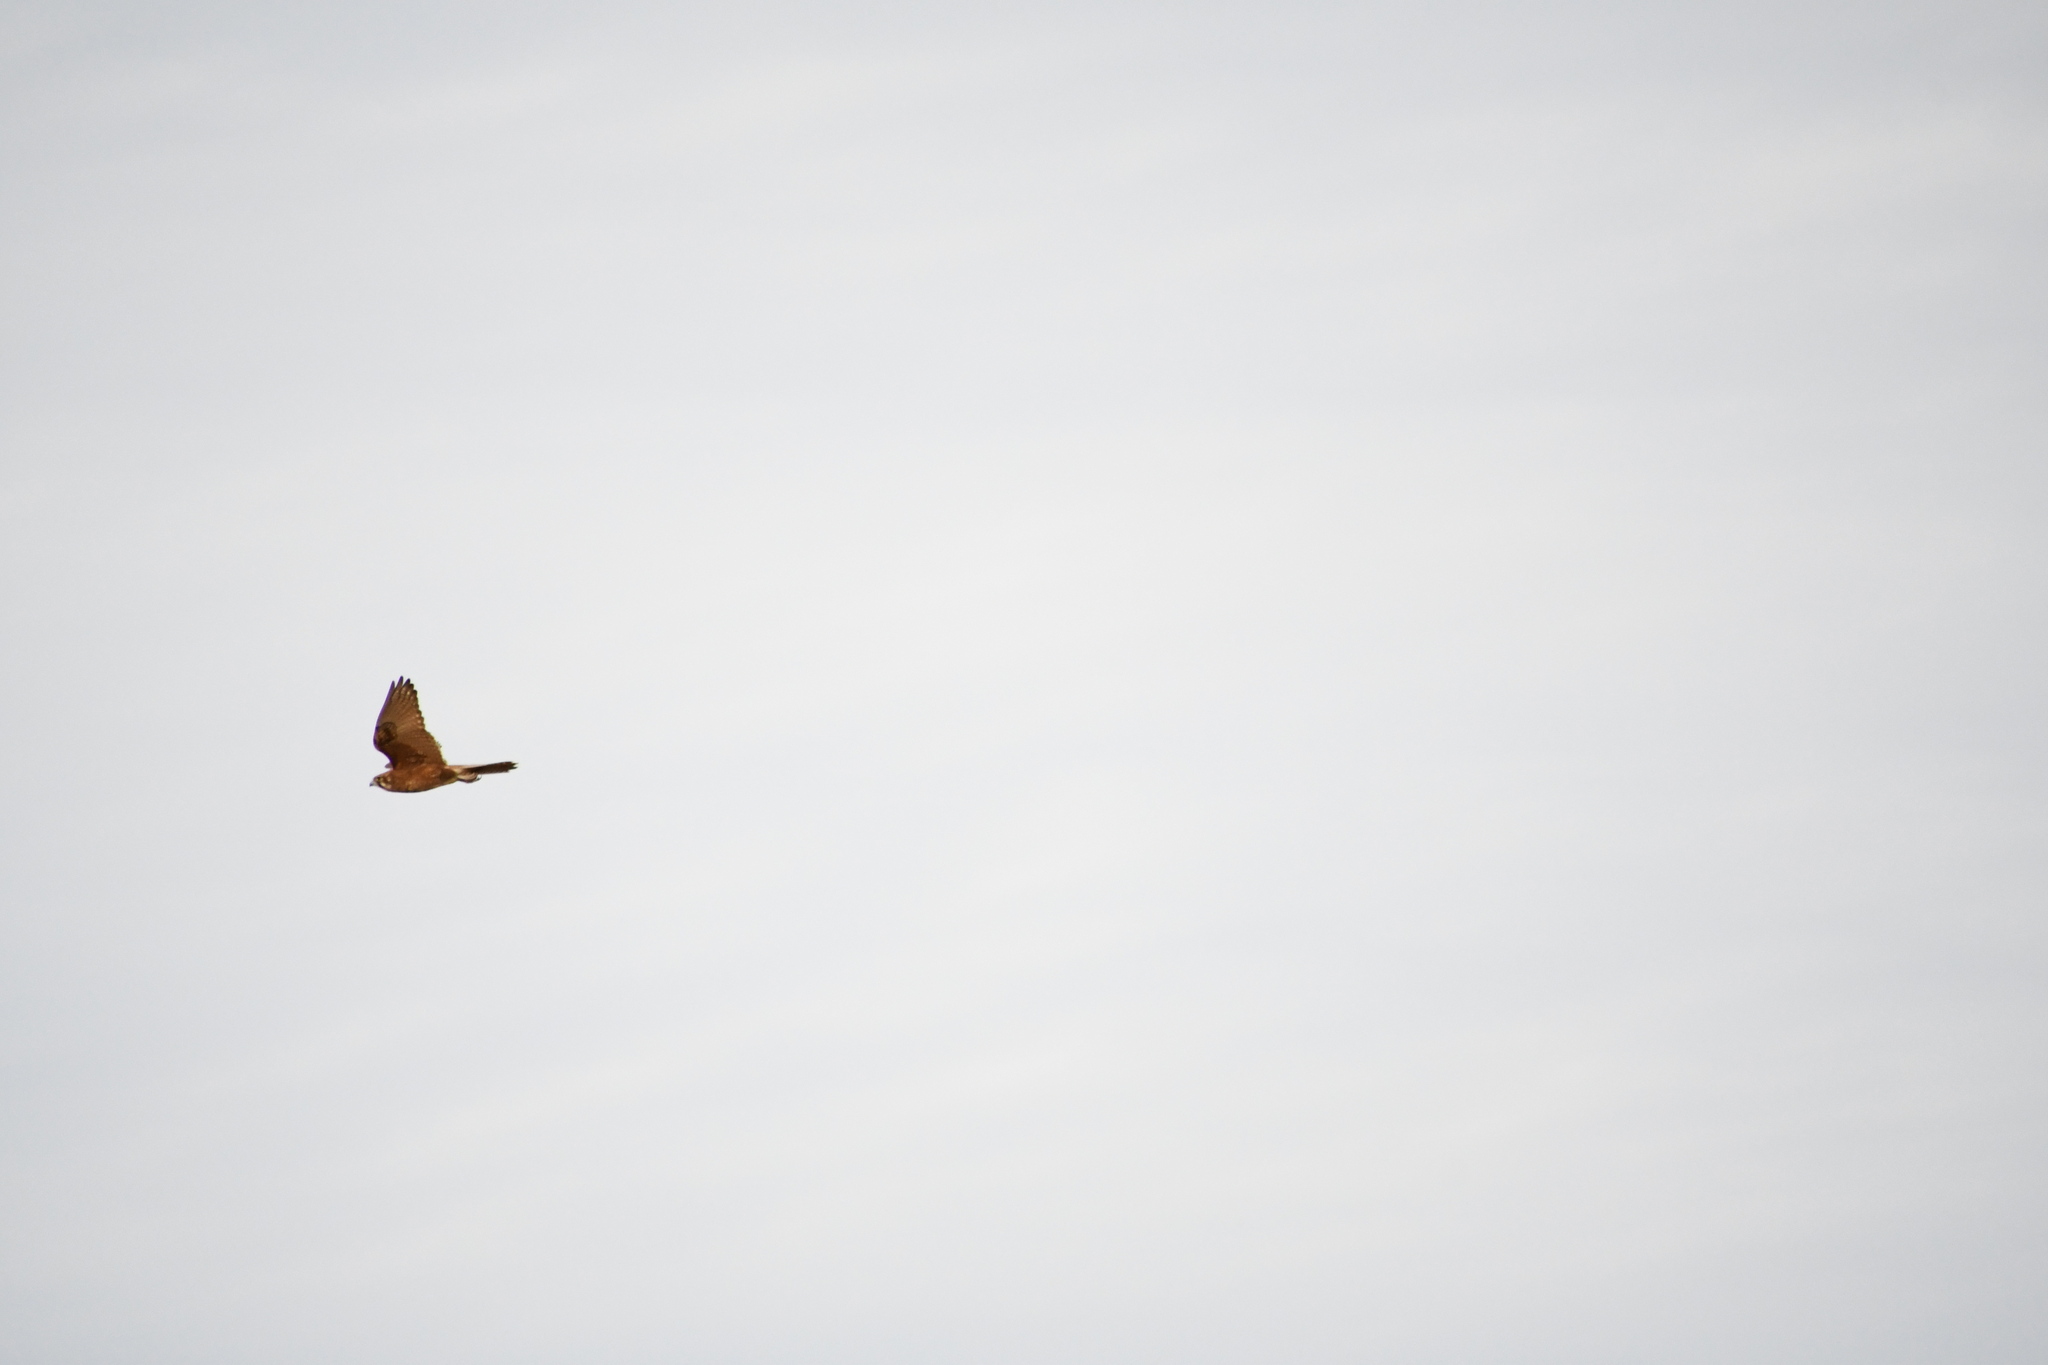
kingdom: Animalia
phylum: Chordata
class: Aves
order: Falconiformes
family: Falconidae
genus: Falco
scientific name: Falco berigora
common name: Brown falcon
